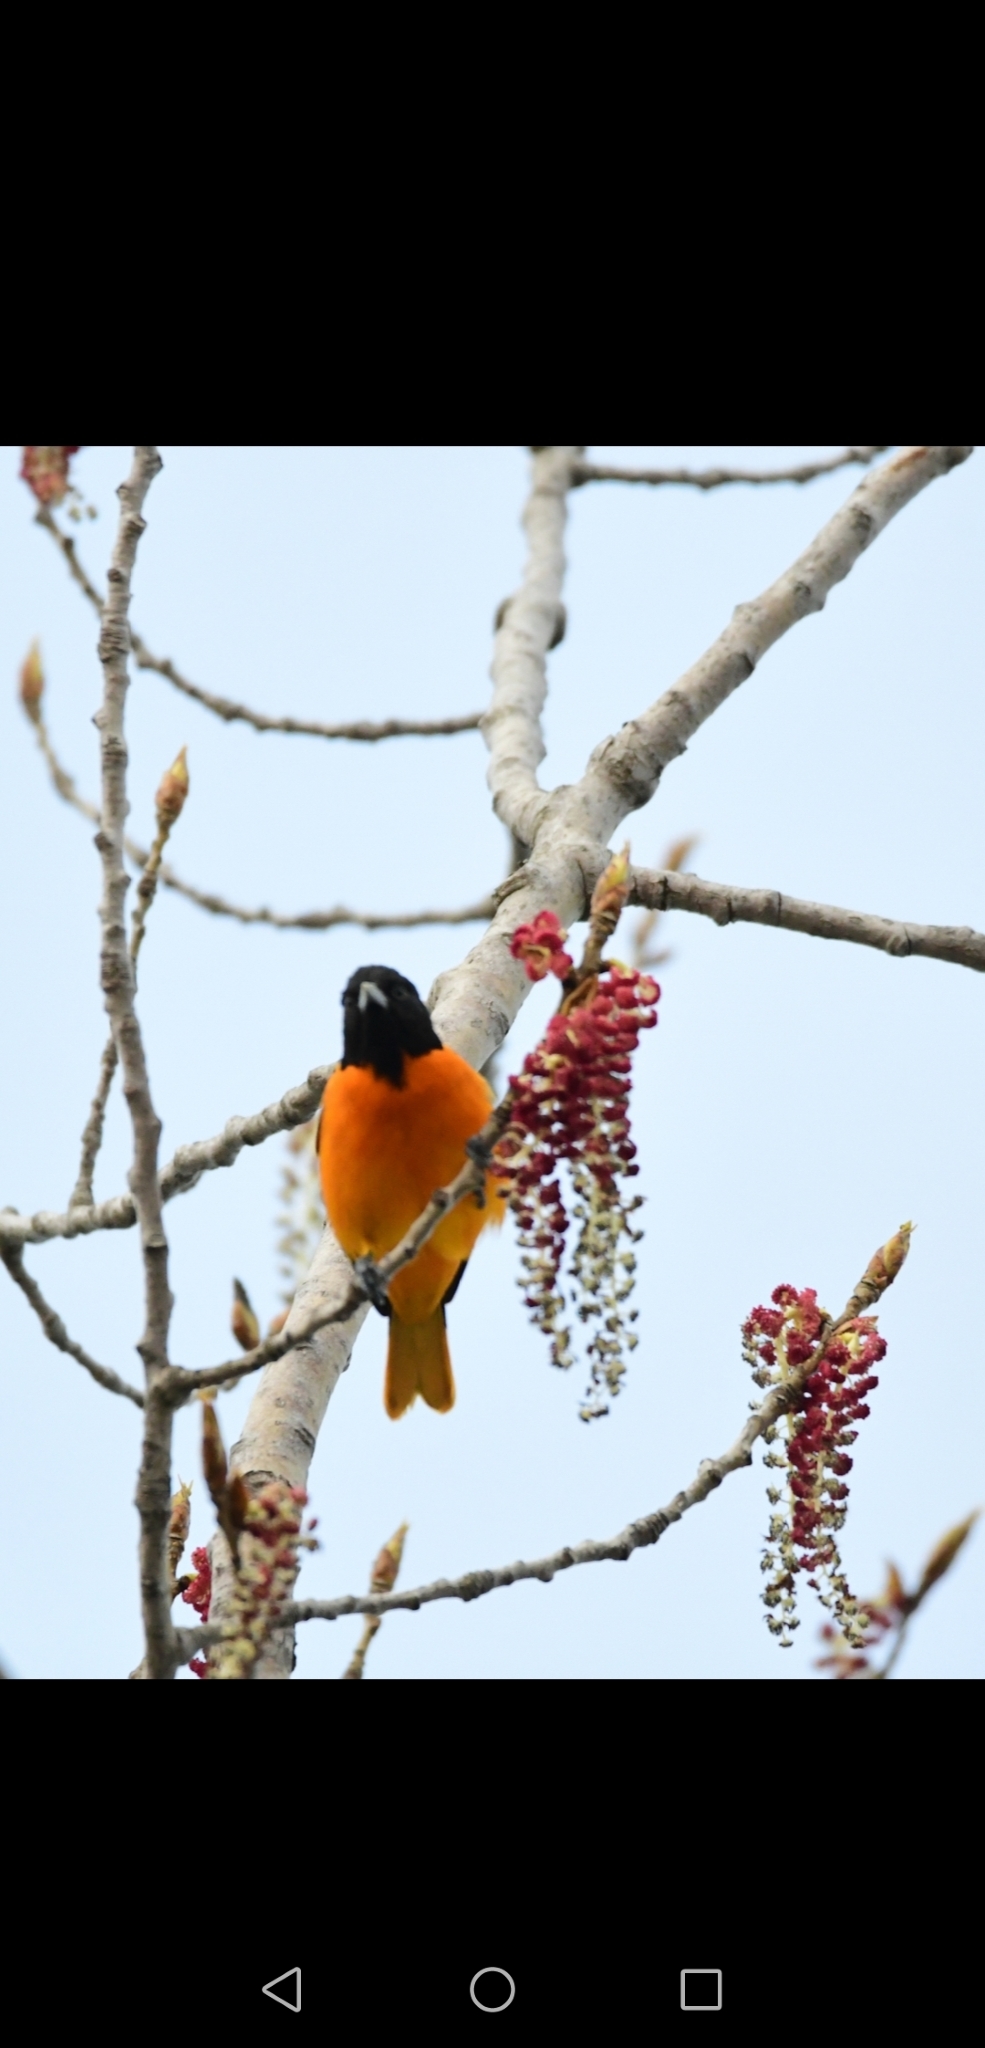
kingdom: Animalia
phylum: Chordata
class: Aves
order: Passeriformes
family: Icteridae
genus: Icterus
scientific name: Icterus galbula
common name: Baltimore oriole
